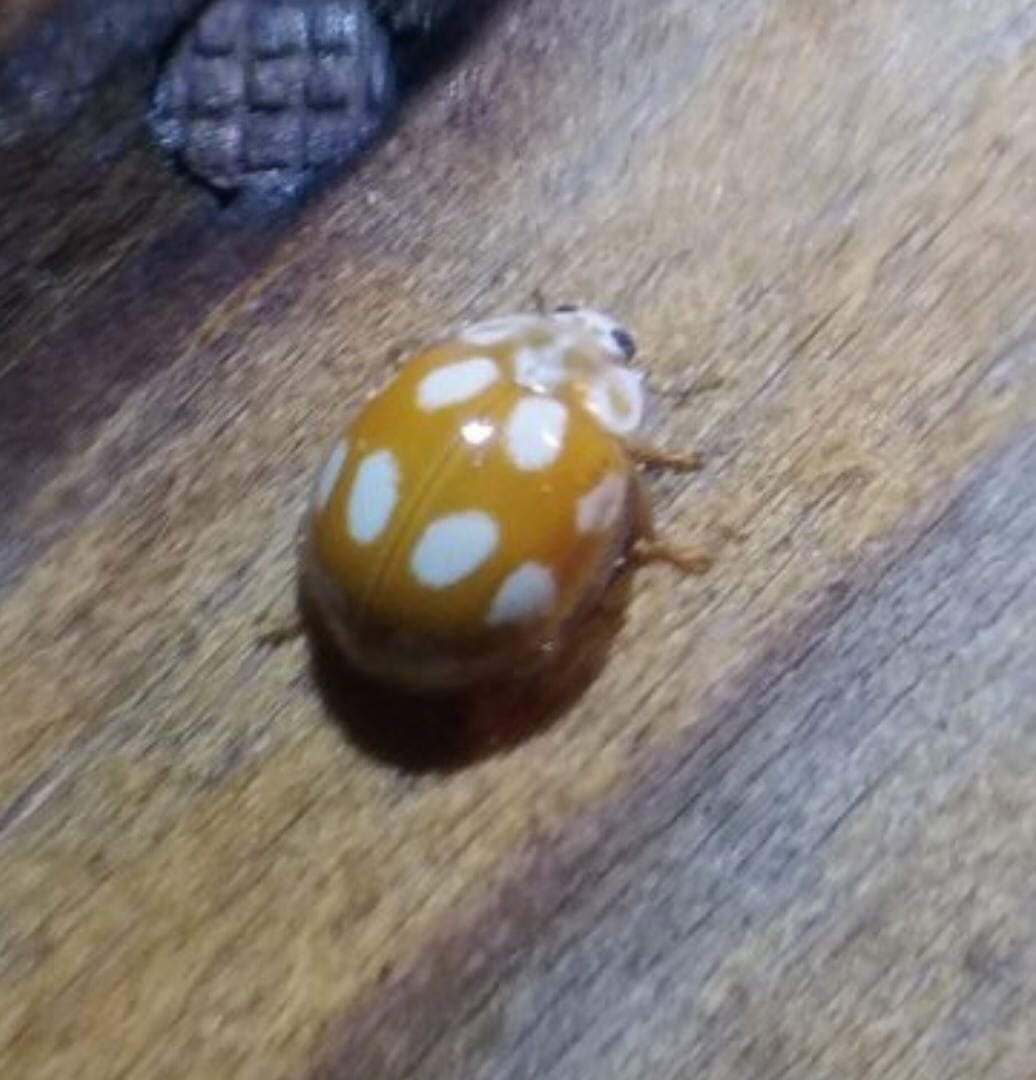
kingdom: Animalia
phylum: Arthropoda
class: Insecta
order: Coleoptera
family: Coccinellidae
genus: Calvia
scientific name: Calvia decemguttata
